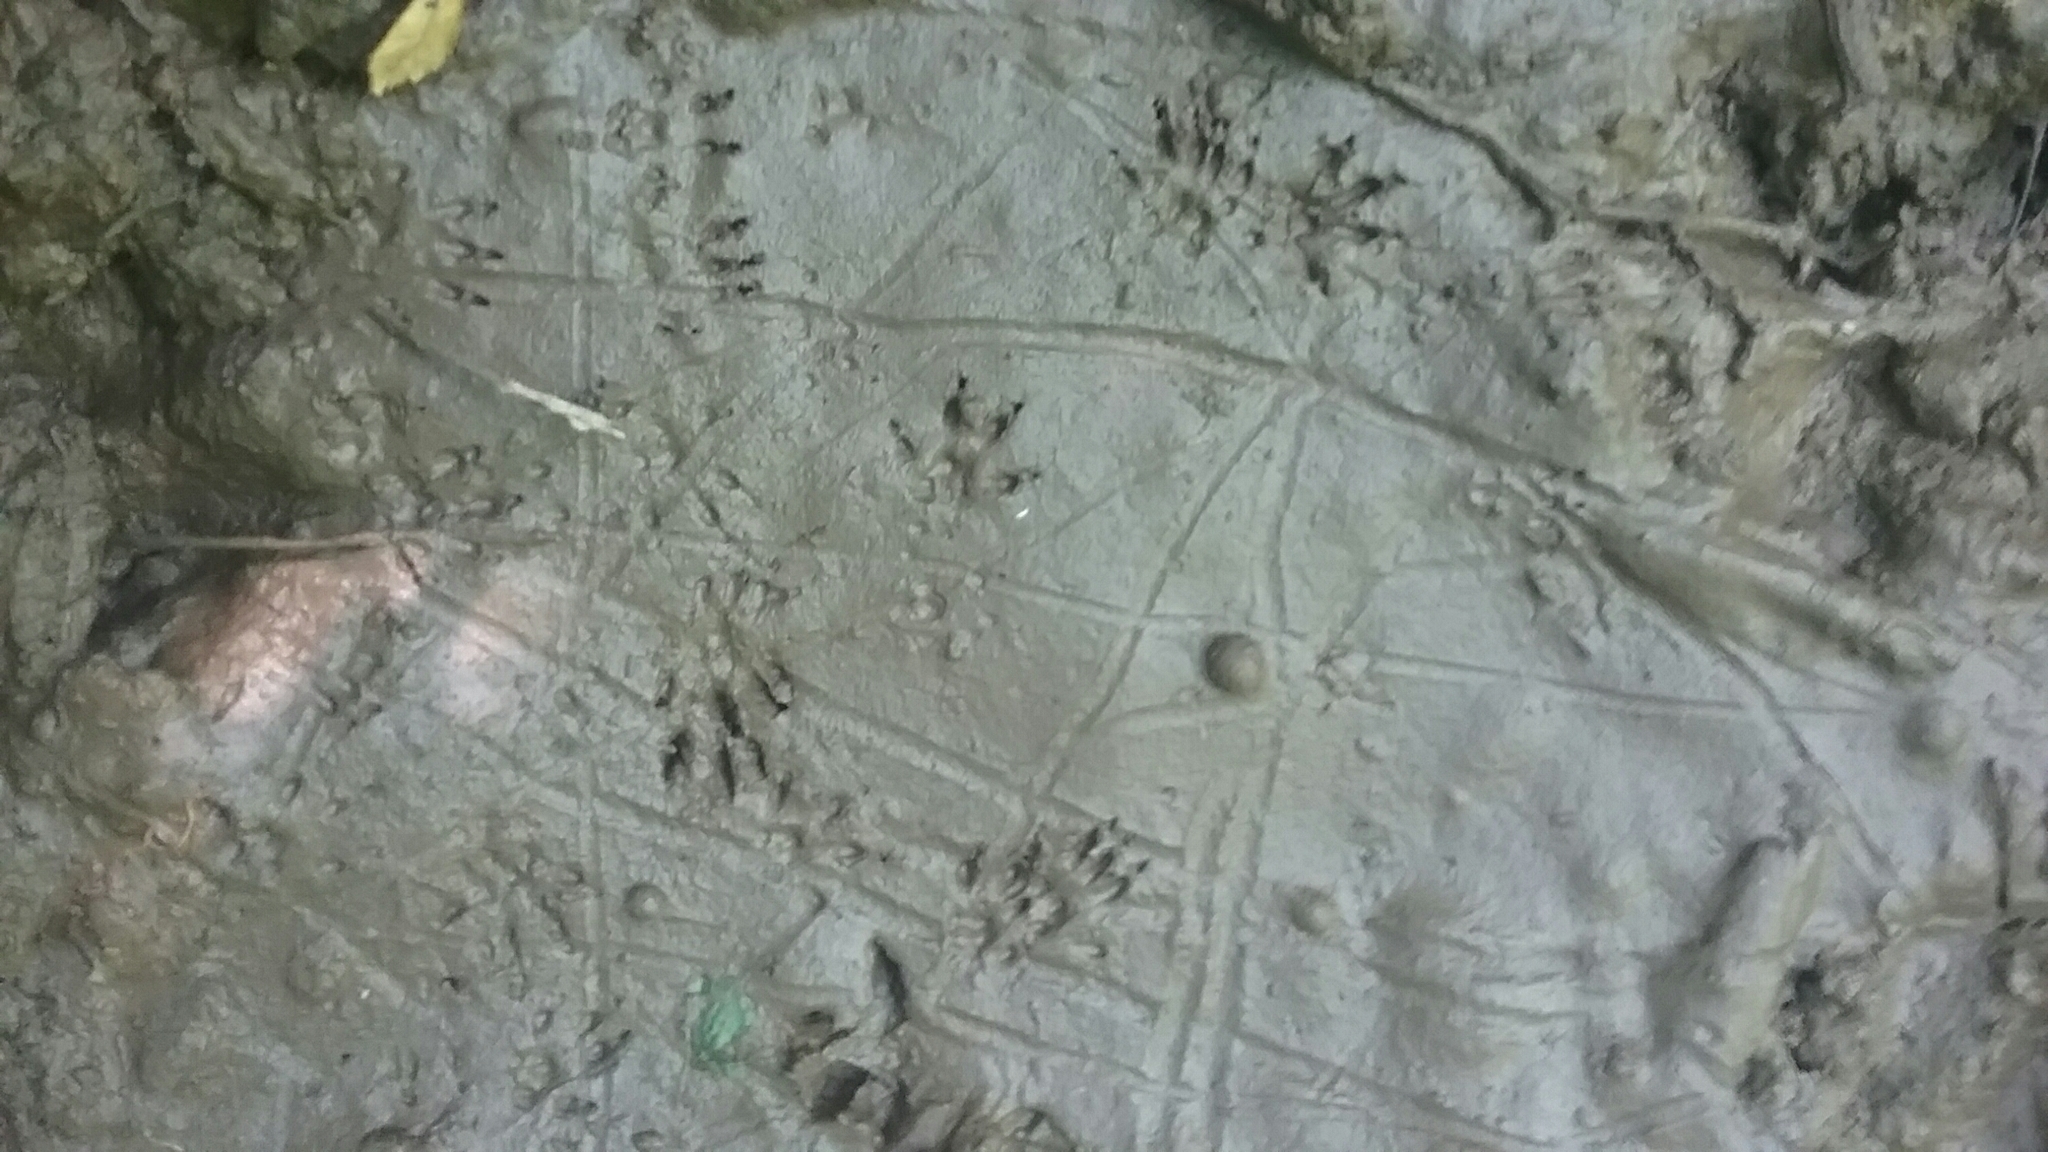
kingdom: Animalia
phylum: Chordata
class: Mammalia
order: Rodentia
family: Sciuridae
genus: Sciurus
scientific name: Sciurus carolinensis
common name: Eastern gray squirrel
